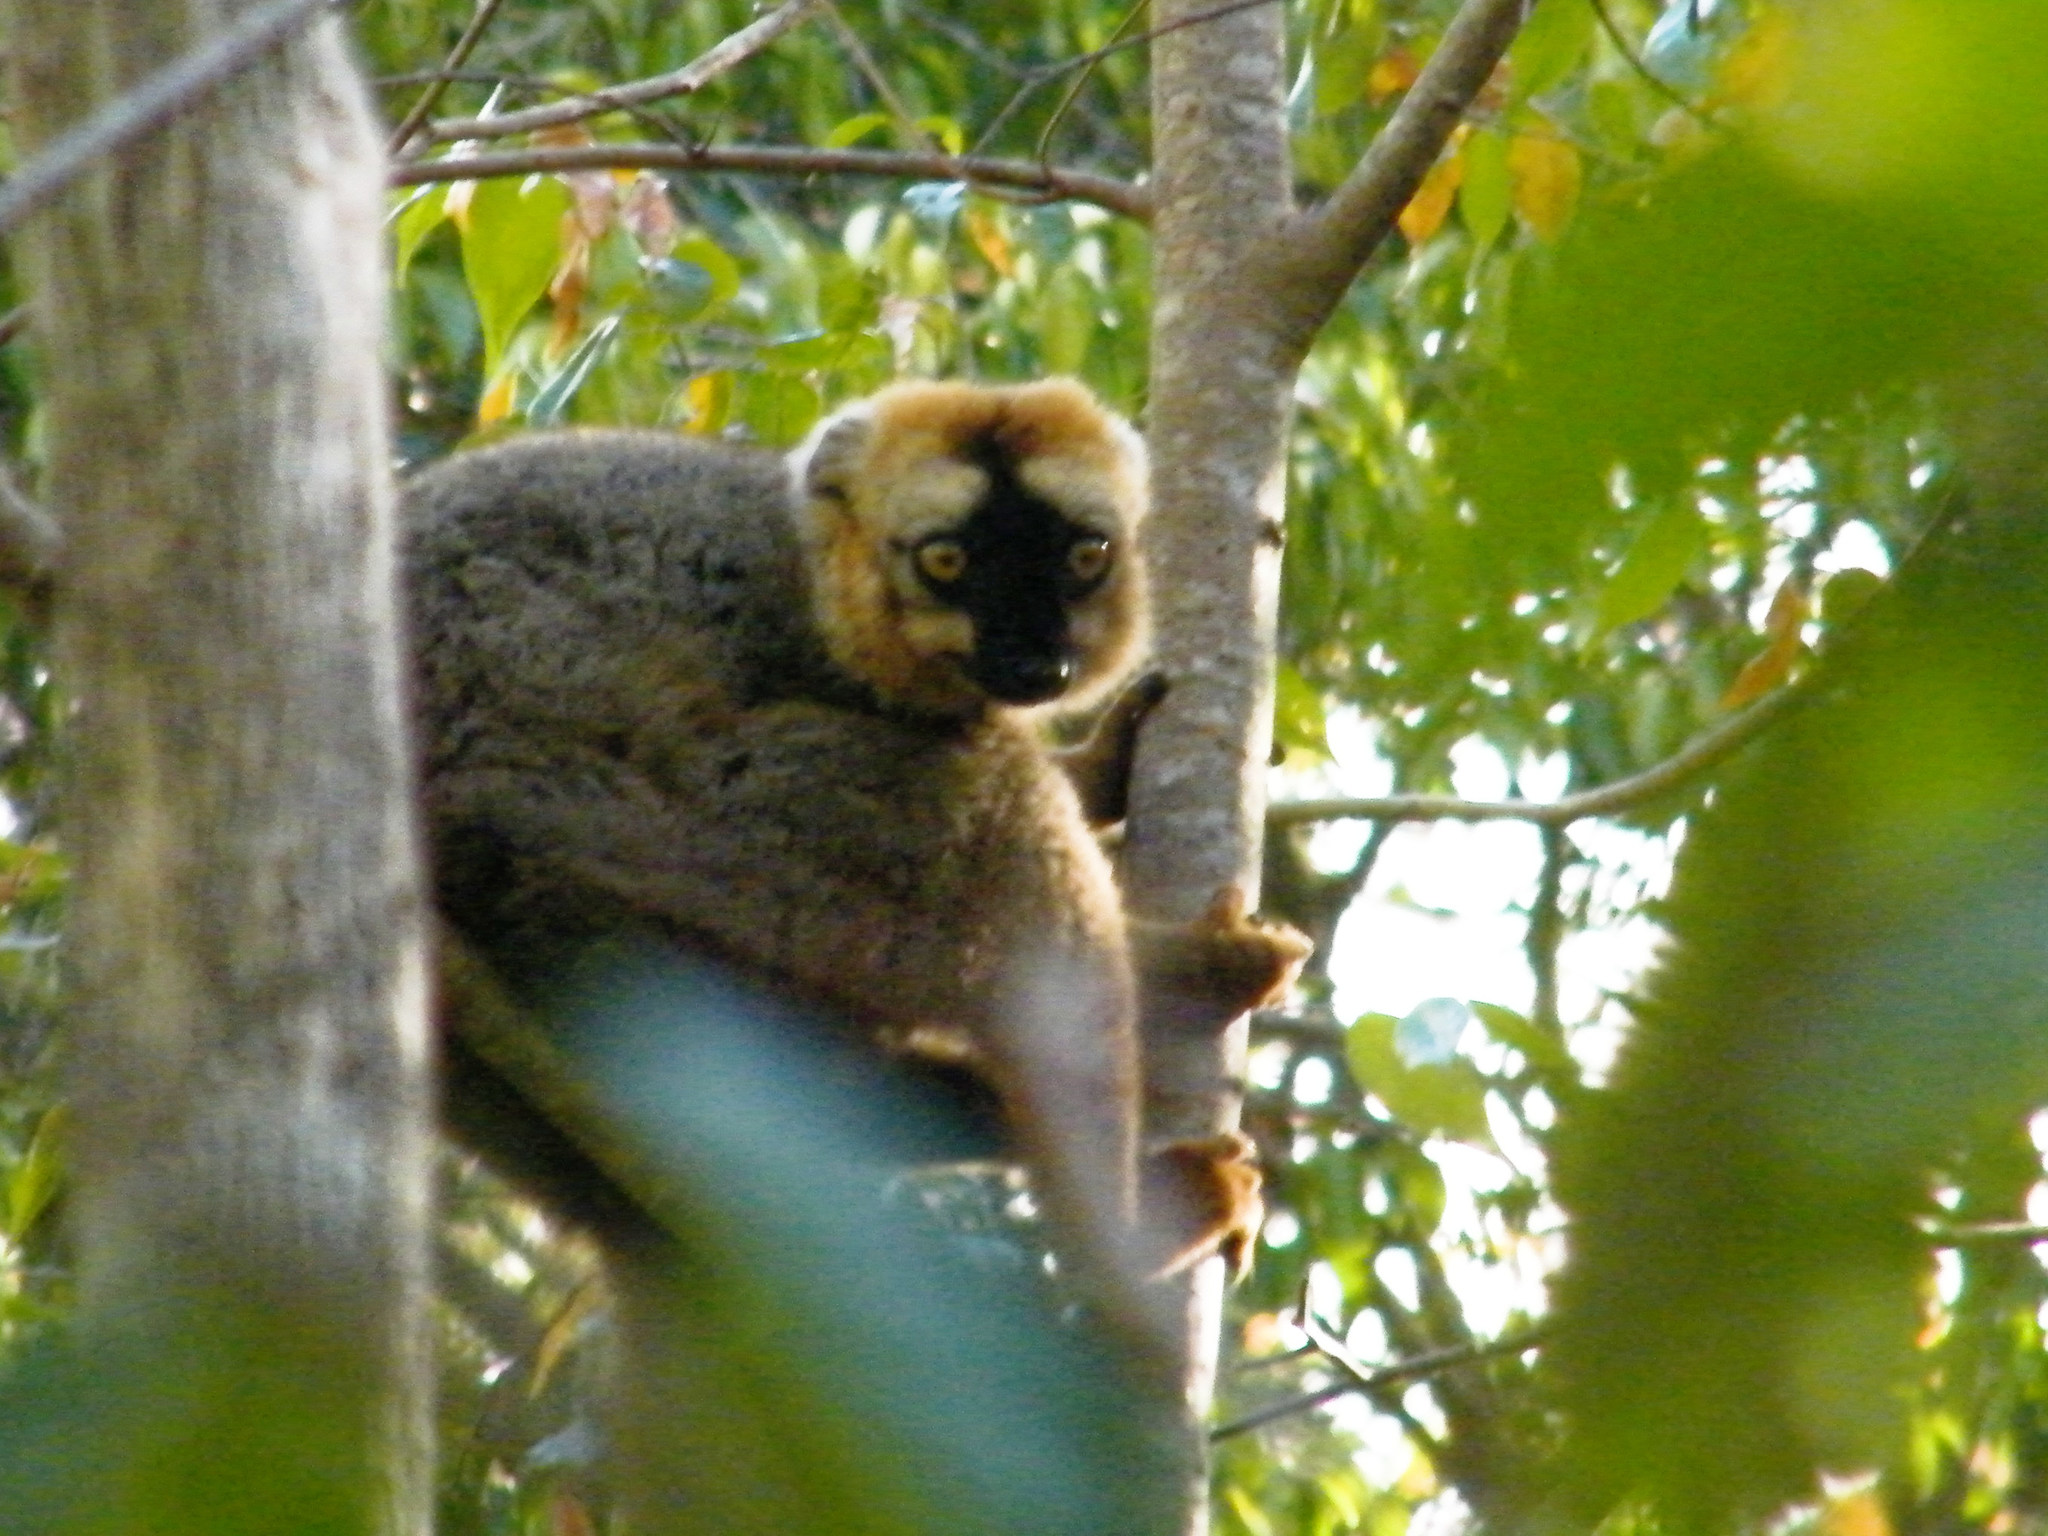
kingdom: Animalia
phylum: Chordata
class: Mammalia
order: Primates
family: Lemuridae
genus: Eulemur
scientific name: Eulemur rufus
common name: Red-fronted lemur
